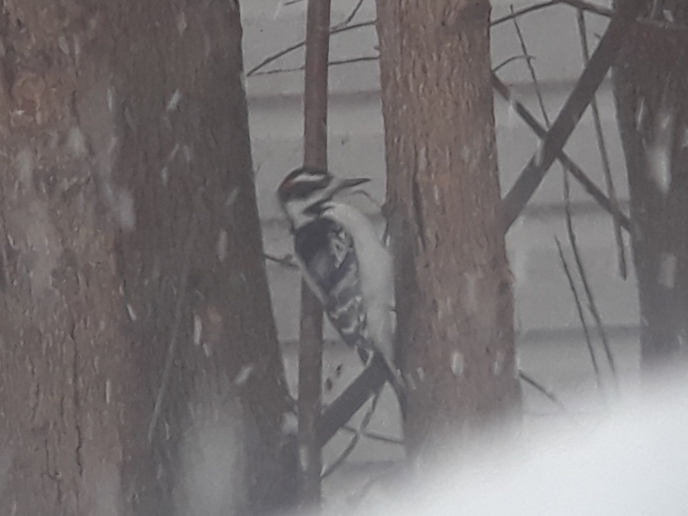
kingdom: Animalia
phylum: Chordata
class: Aves
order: Piciformes
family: Picidae
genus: Leuconotopicus
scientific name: Leuconotopicus villosus
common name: Hairy woodpecker
